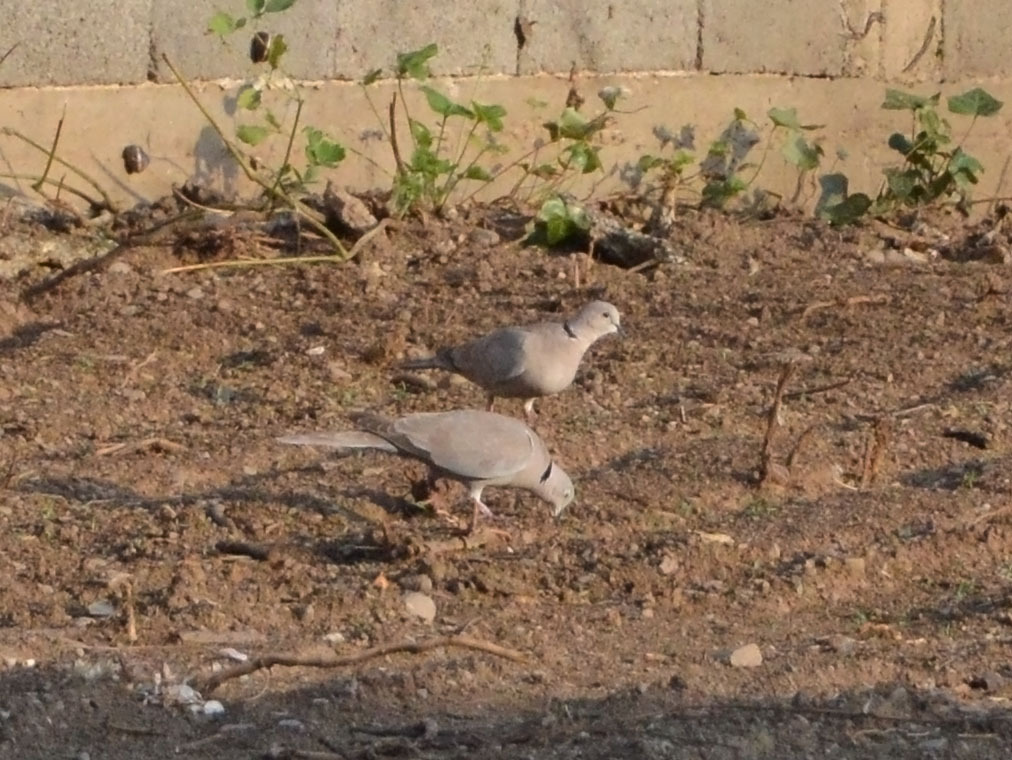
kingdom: Animalia
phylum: Chordata
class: Aves
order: Columbiformes
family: Columbidae
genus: Streptopelia
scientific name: Streptopelia decaocto
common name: Eurasian collared dove
